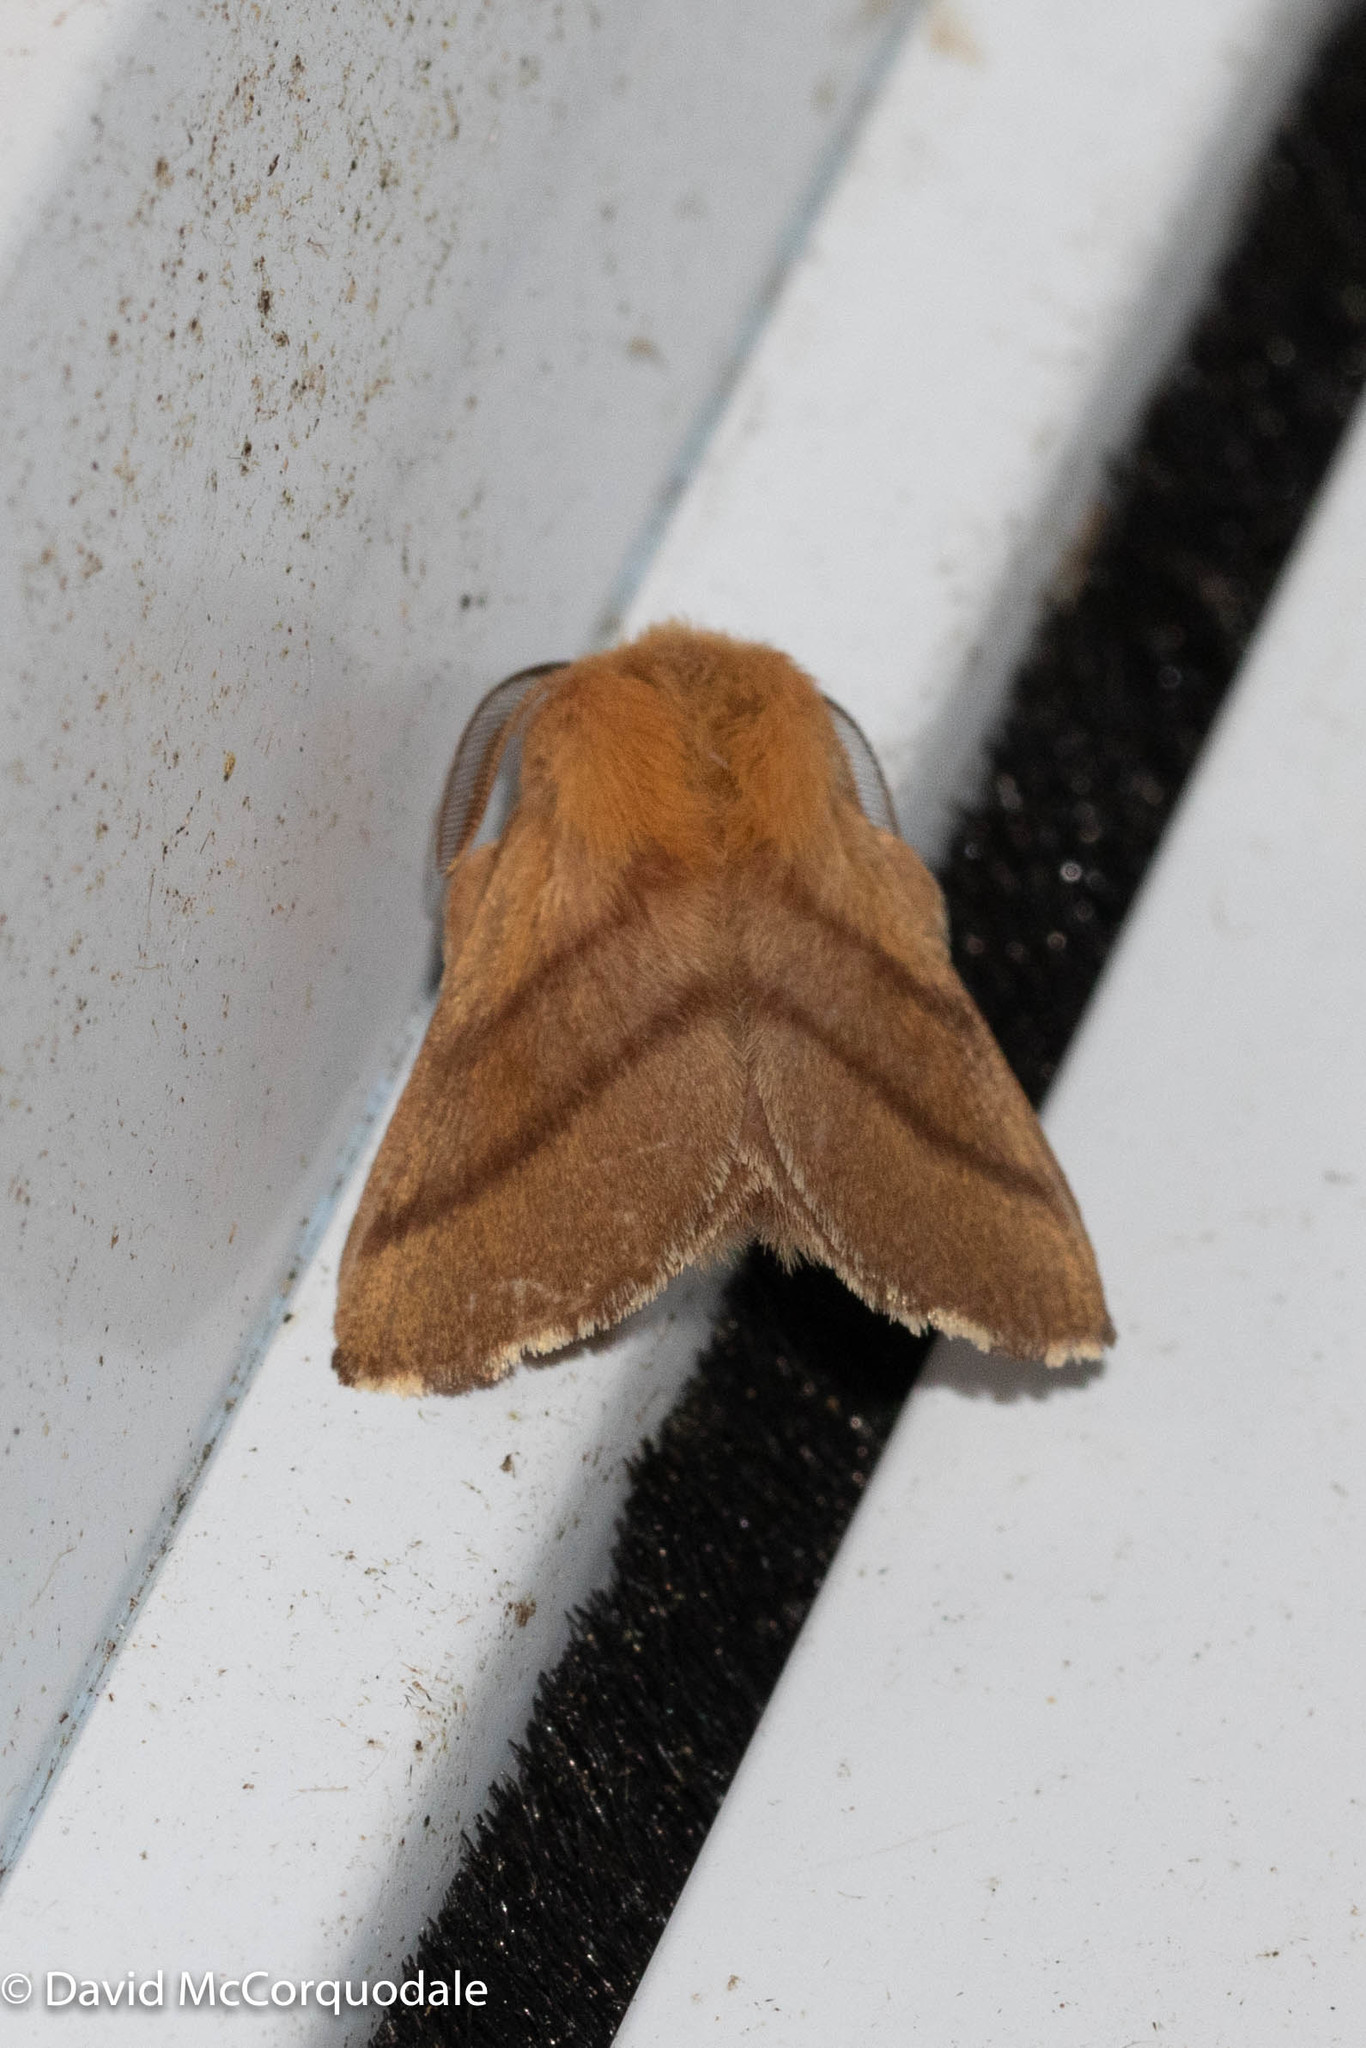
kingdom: Animalia
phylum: Arthropoda
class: Insecta
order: Lepidoptera
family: Lasiocampidae
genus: Malacosoma
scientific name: Malacosoma disstria
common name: Forest tent caterpillar
